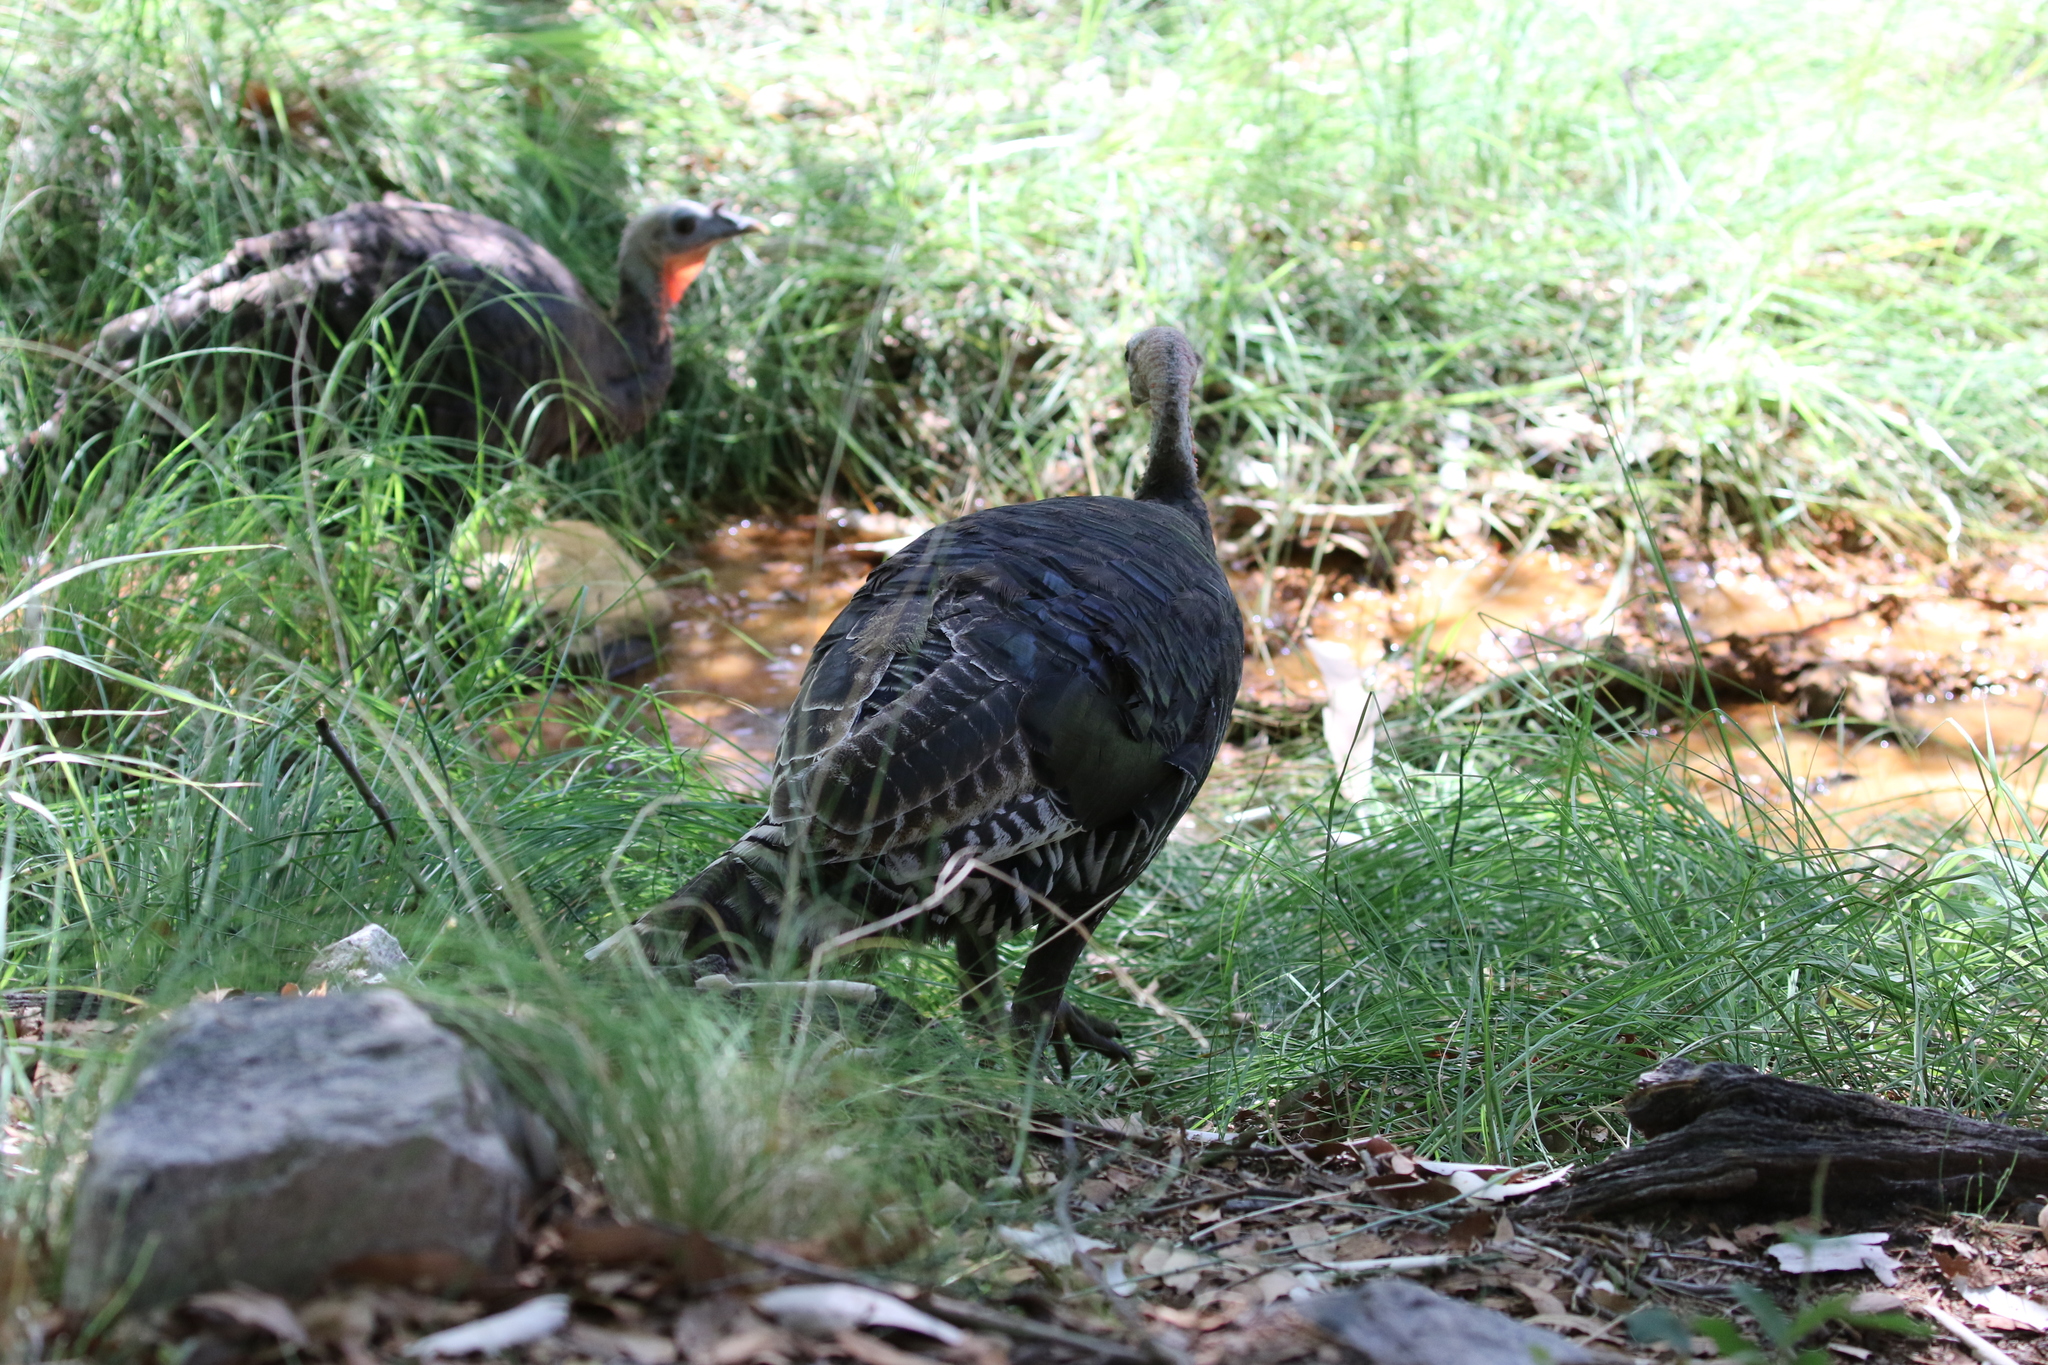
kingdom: Animalia
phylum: Chordata
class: Aves
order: Galliformes
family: Phasianidae
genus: Meleagris
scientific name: Meleagris gallopavo
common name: Wild turkey
